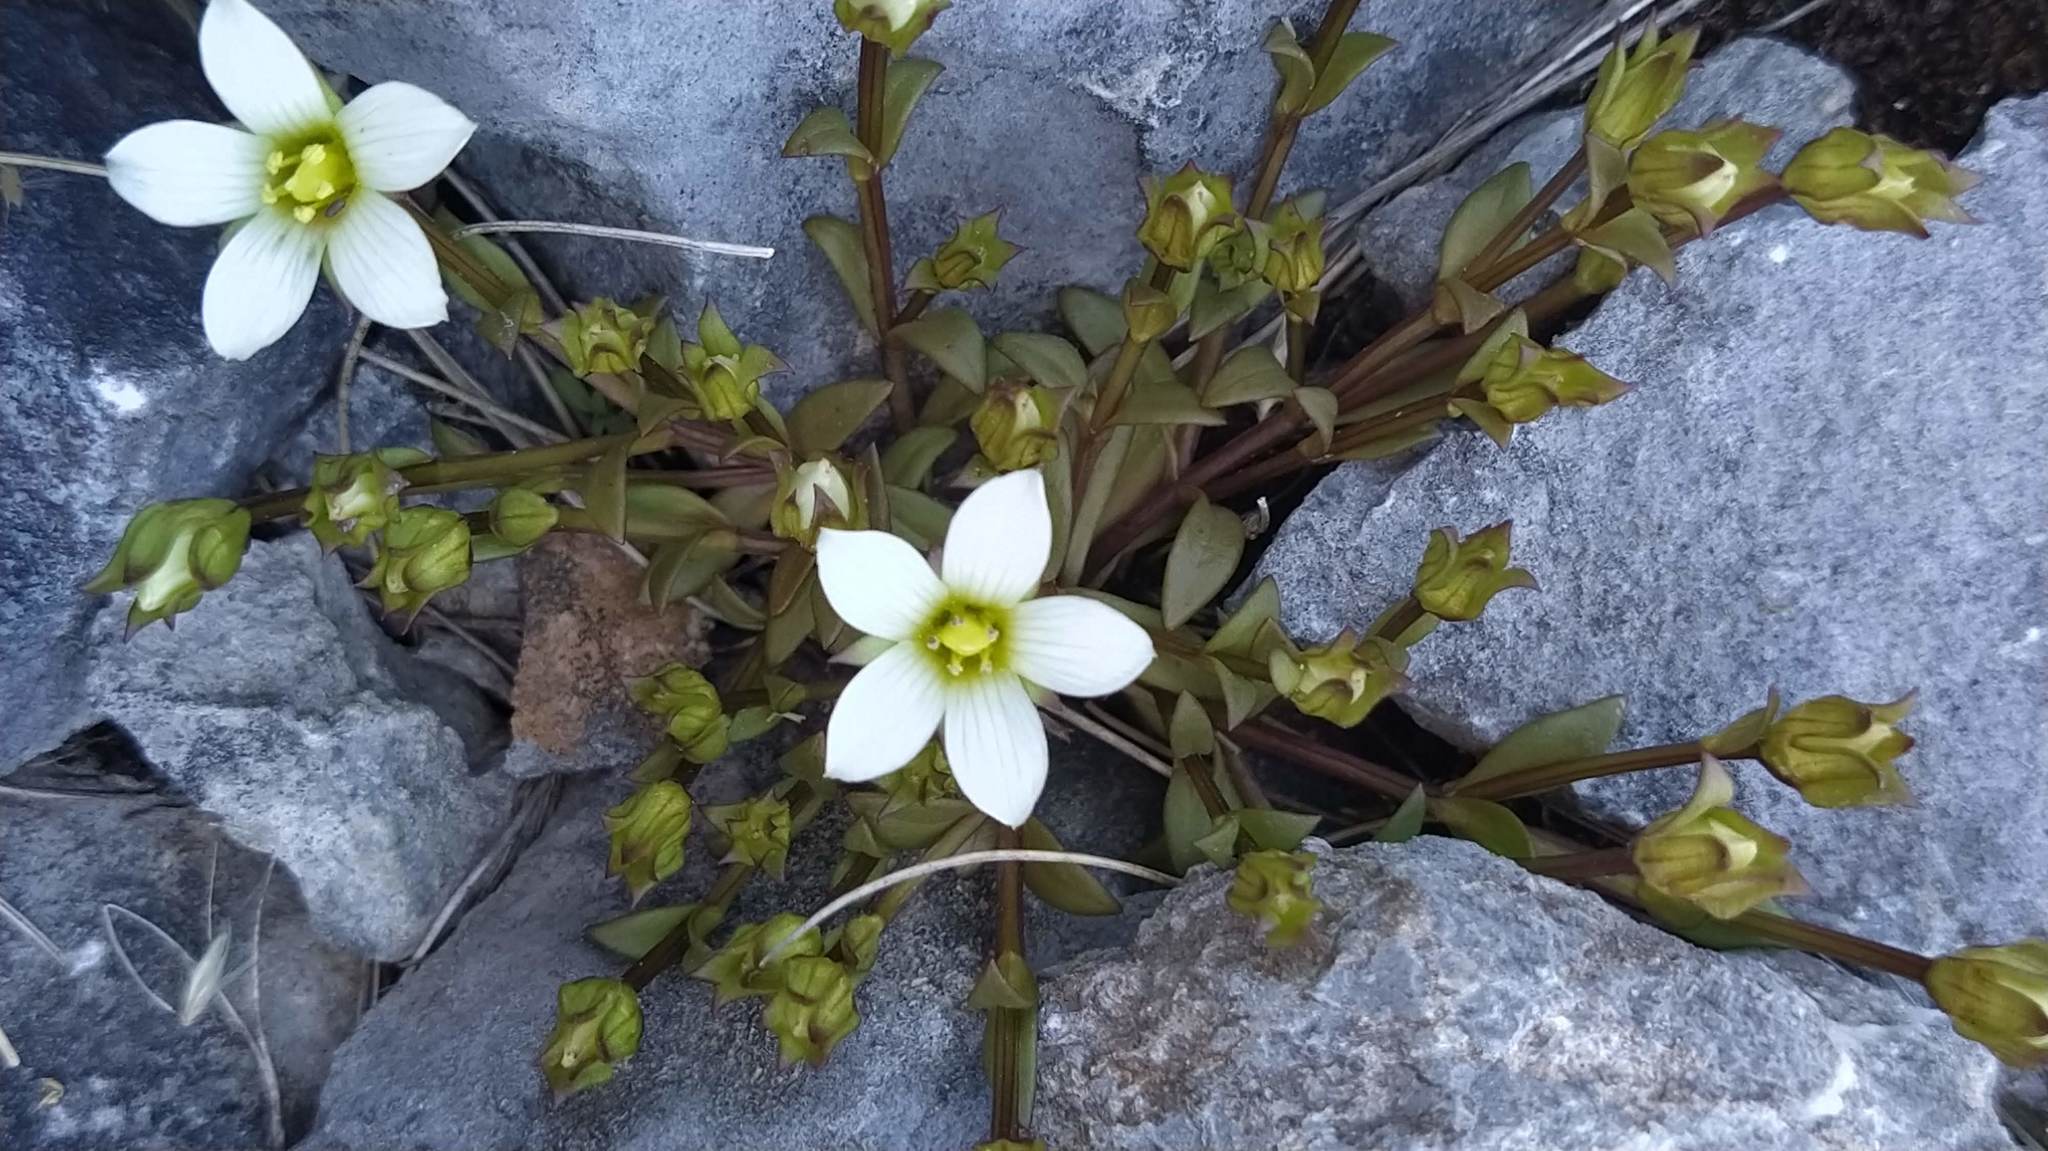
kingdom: Plantae
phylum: Tracheophyta
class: Magnoliopsida
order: Gentianales
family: Gentianaceae
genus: Gentianella
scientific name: Gentianella filipes
